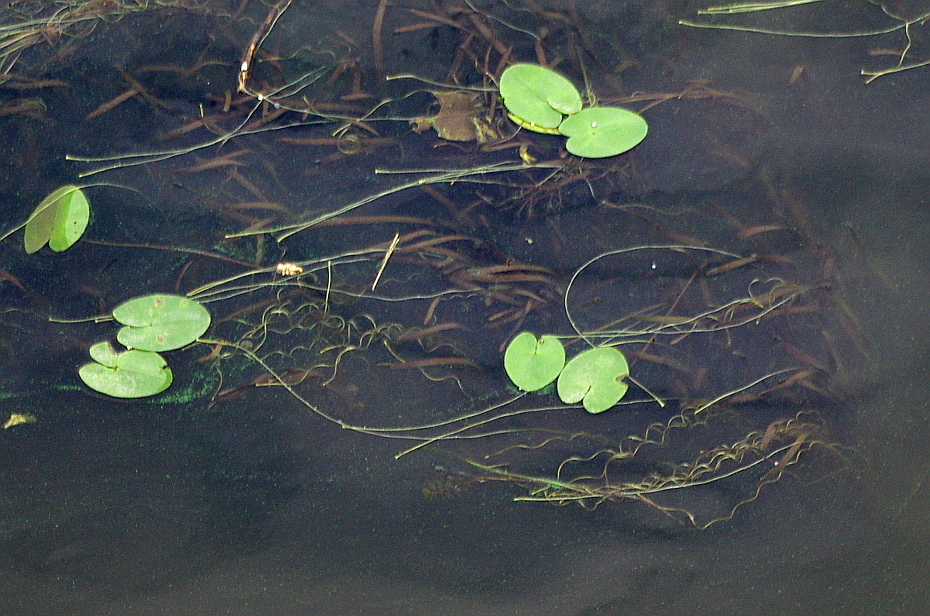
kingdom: Plantae
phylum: Tracheophyta
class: Liliopsida
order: Alismatales
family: Hydrocharitaceae
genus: Vallisneria
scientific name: Vallisneria spiralis
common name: Tapegrass
